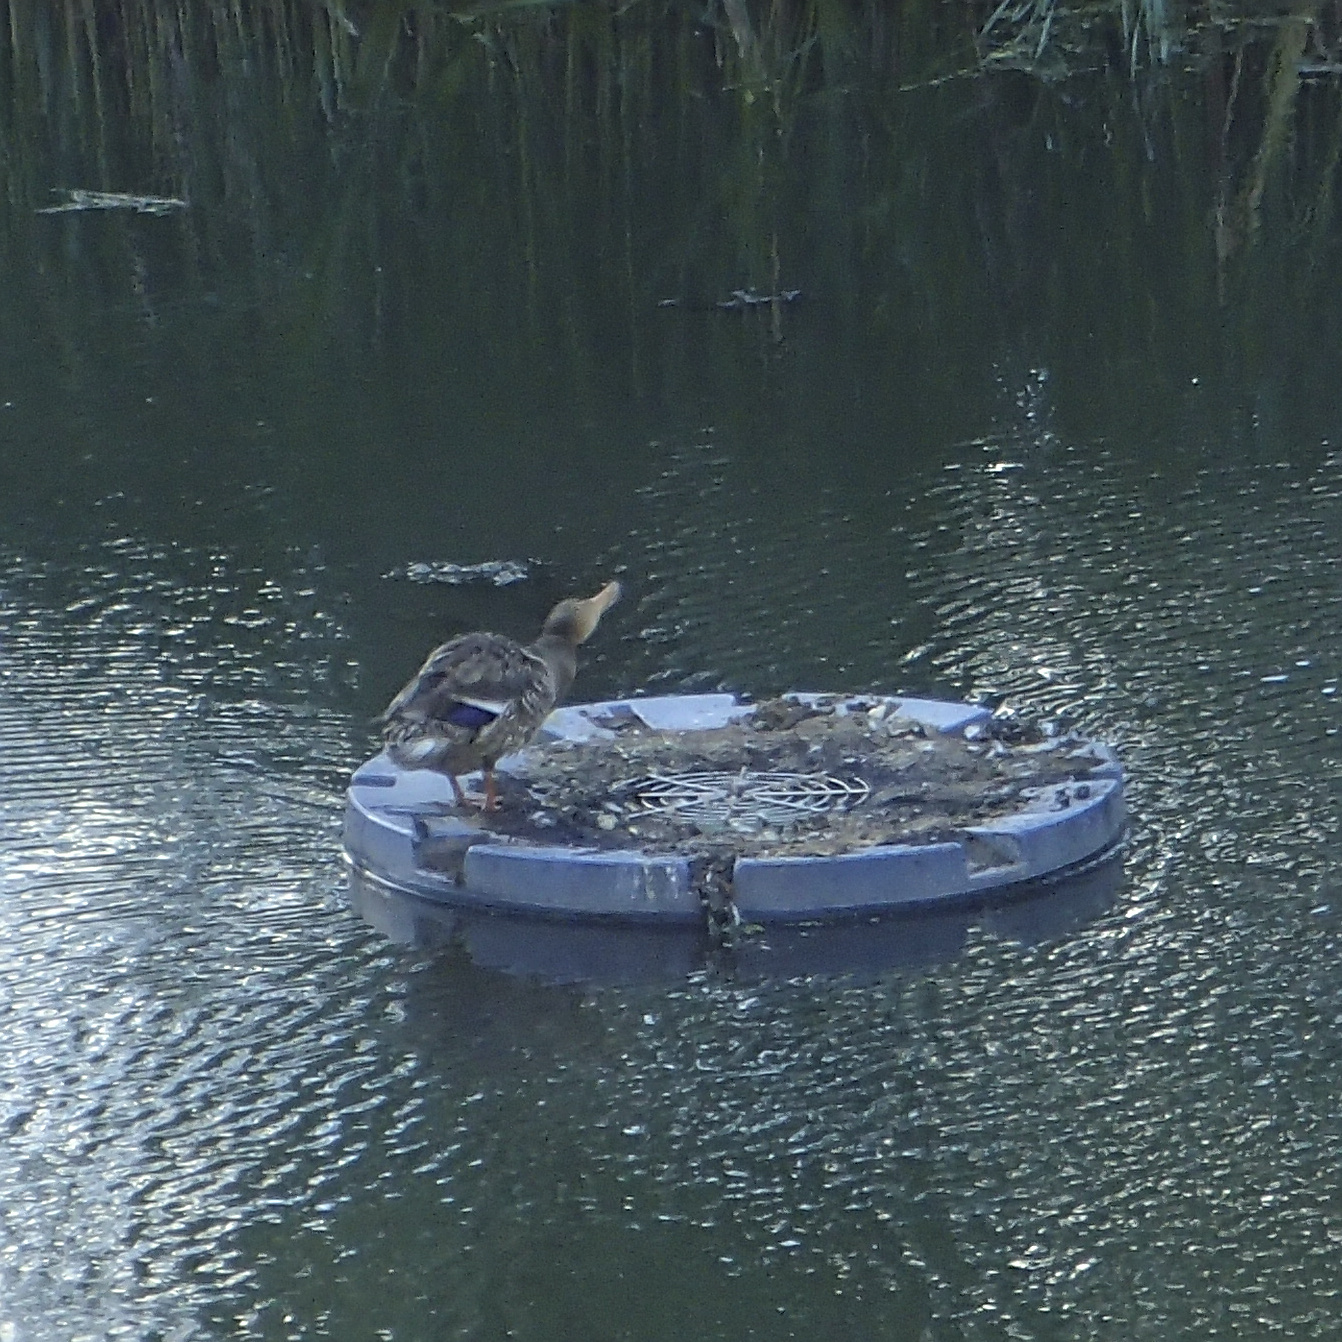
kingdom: Animalia
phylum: Chordata
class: Aves
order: Anseriformes
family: Anatidae
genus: Anas
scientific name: Anas platyrhynchos
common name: Mallard
